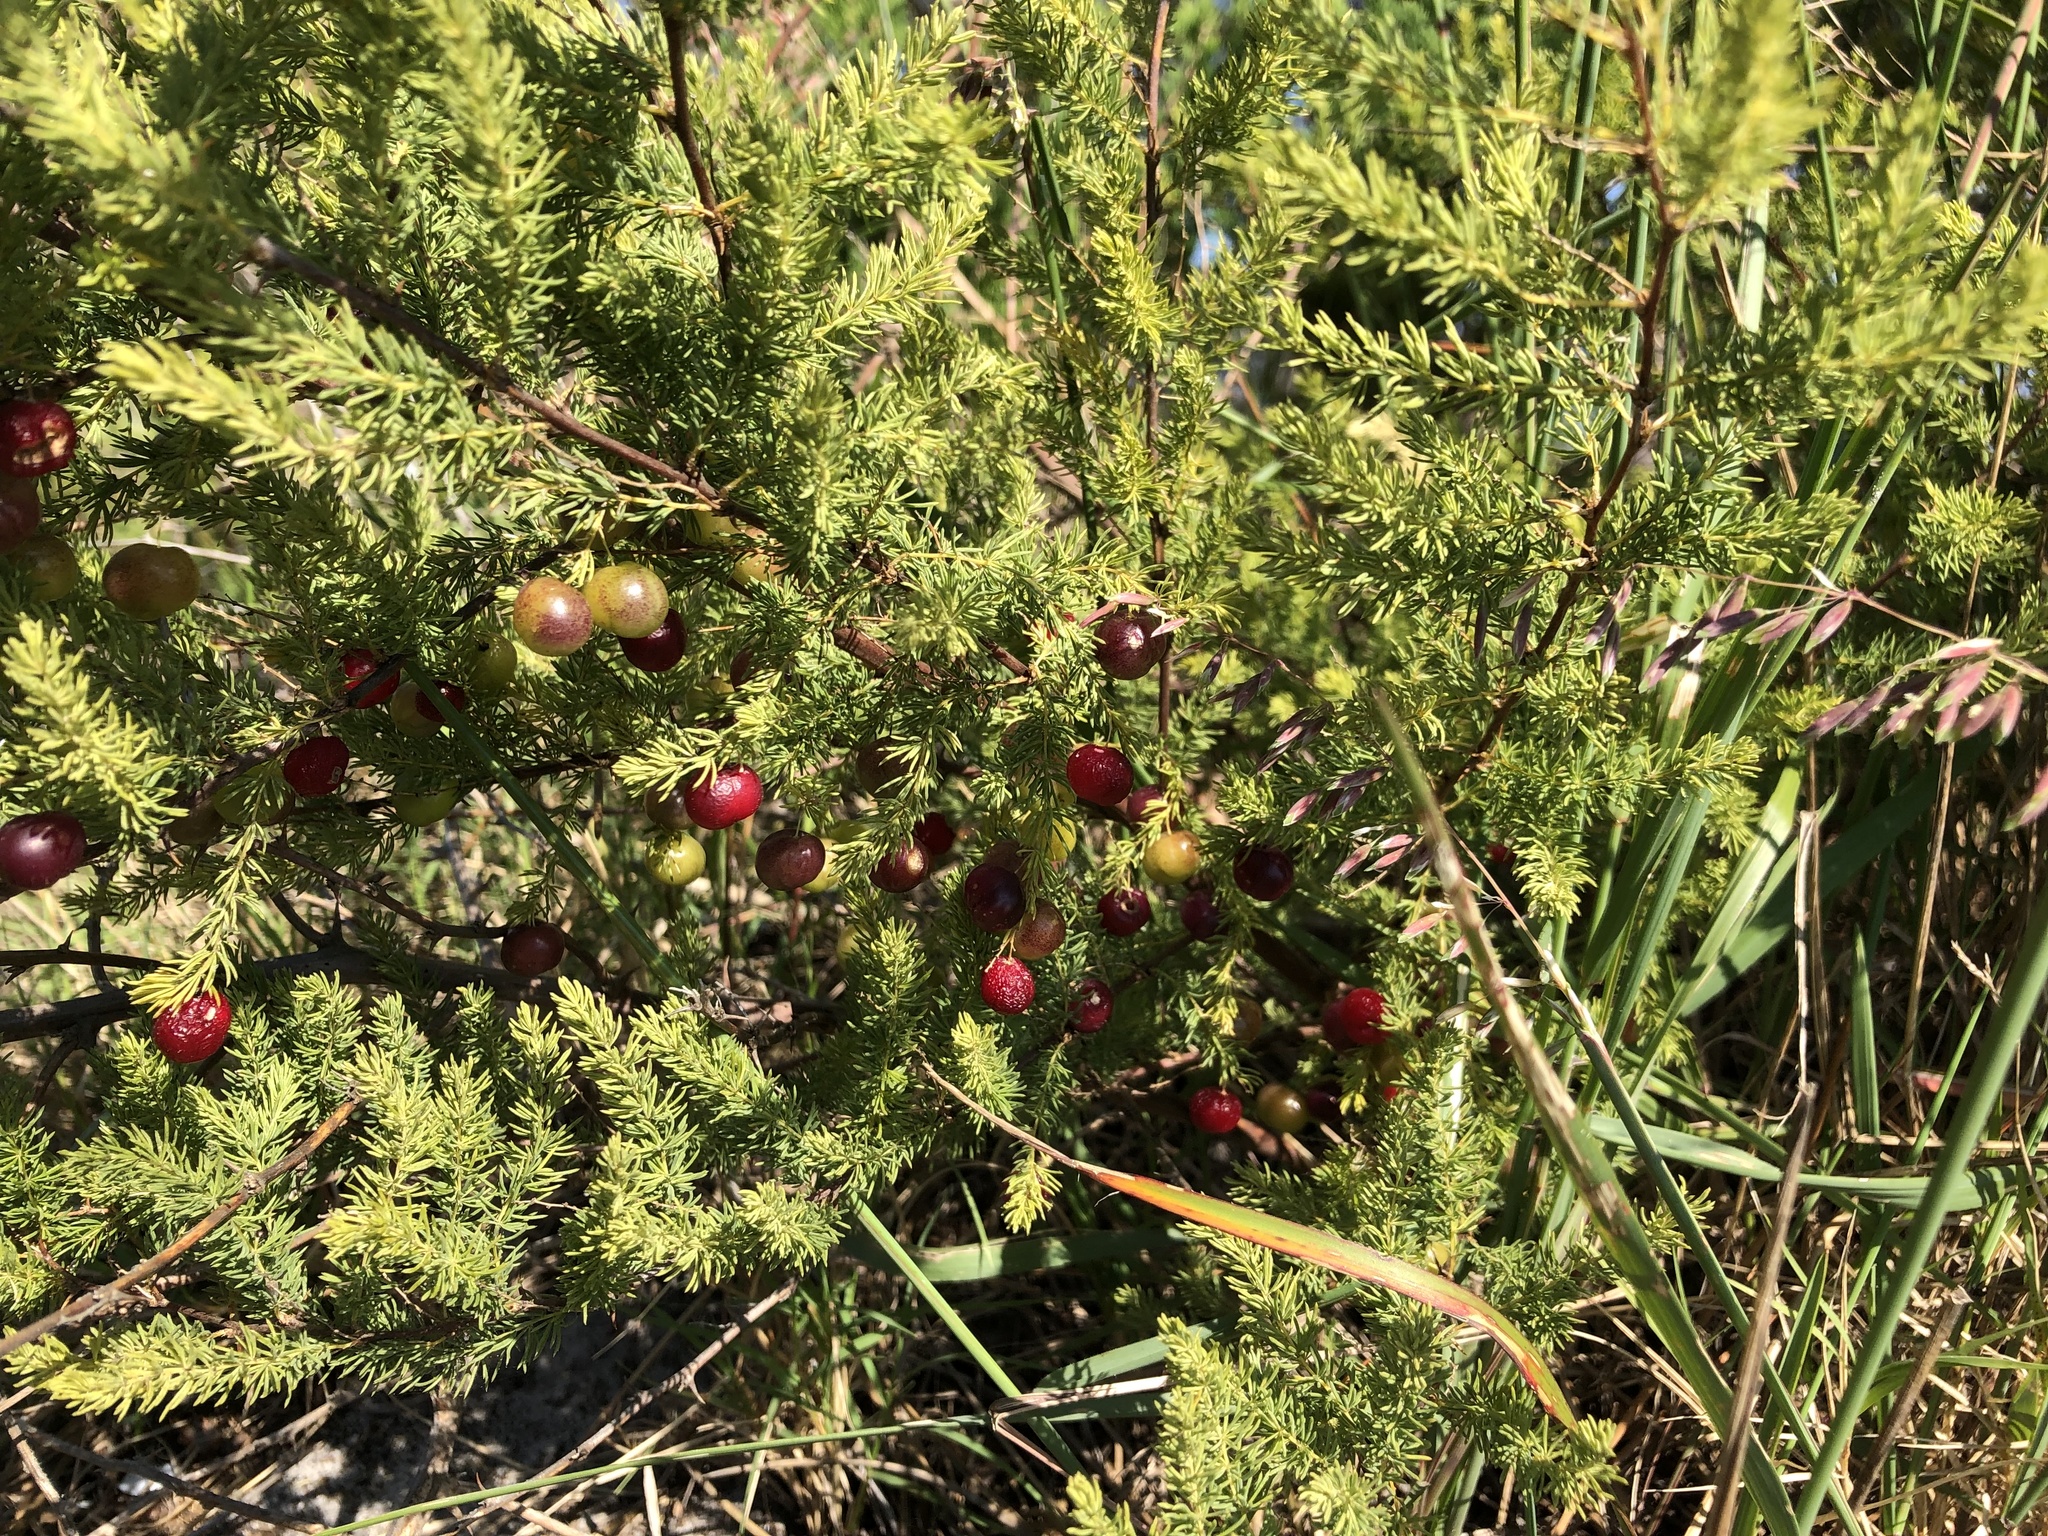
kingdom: Plantae
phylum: Tracheophyta
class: Liliopsida
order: Asparagales
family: Asparagaceae
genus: Asparagus
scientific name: Asparagus rubicundus
